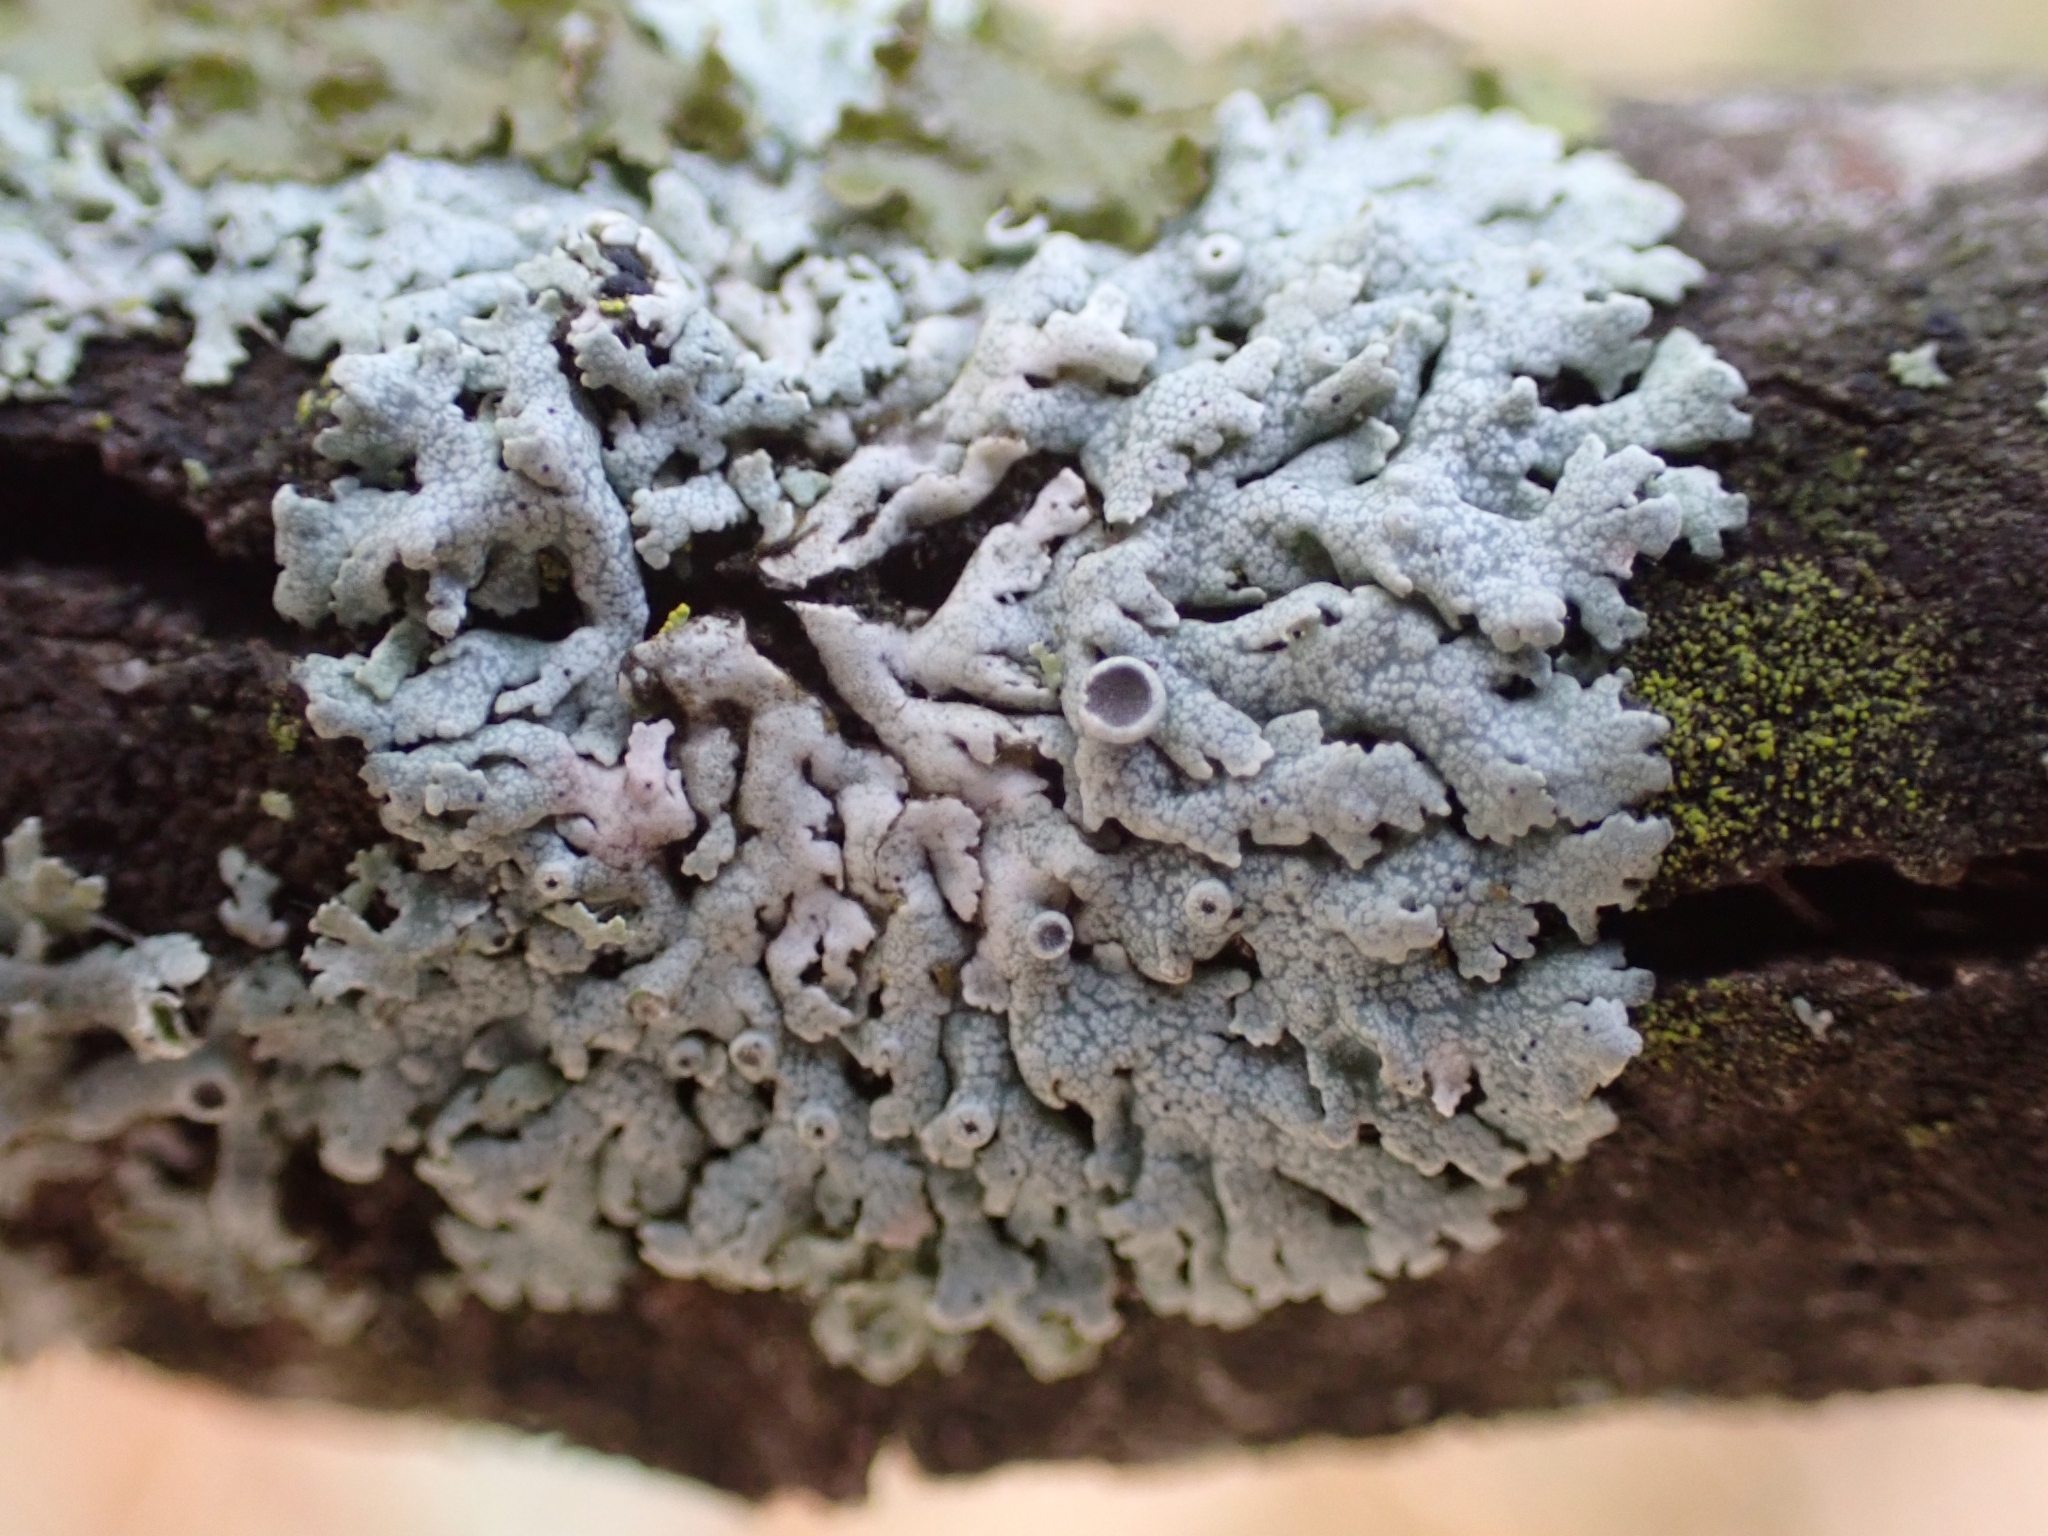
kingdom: Fungi
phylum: Ascomycota
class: Lecanoromycetes
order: Caliciales
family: Physciaceae
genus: Physcia
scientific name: Physcia aipolia
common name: Hoary rosette lichen
